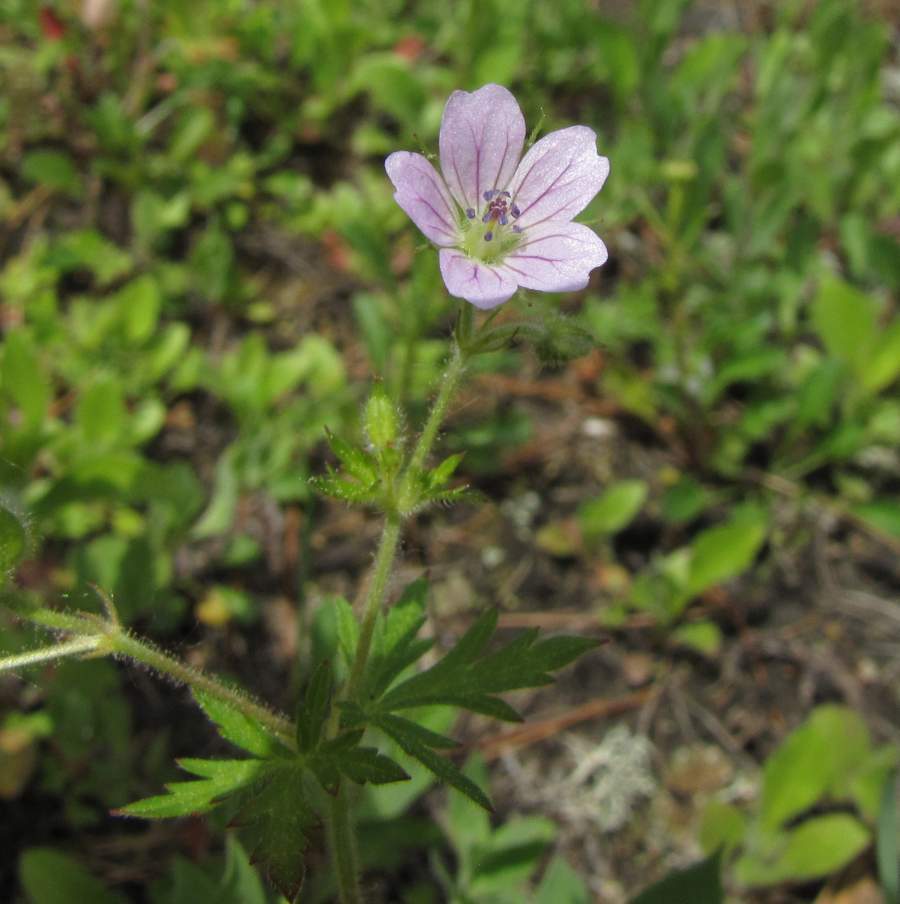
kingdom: Plantae
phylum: Tracheophyta
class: Magnoliopsida
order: Geraniales
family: Geraniaceae
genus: Geranium
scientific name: Geranium bicknellii
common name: Bicknell's cranesbill
